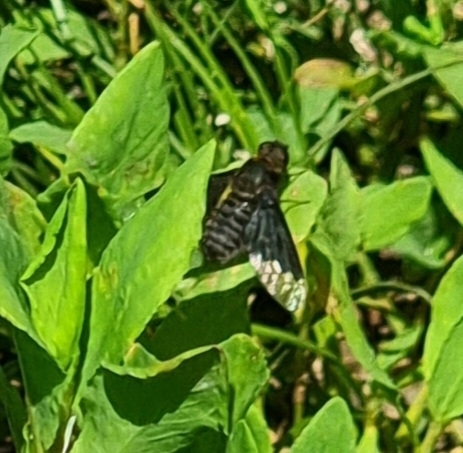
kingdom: Animalia
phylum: Arthropoda
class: Insecta
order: Diptera
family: Bombyliidae
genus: Hemipenthes
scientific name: Hemipenthes morio
